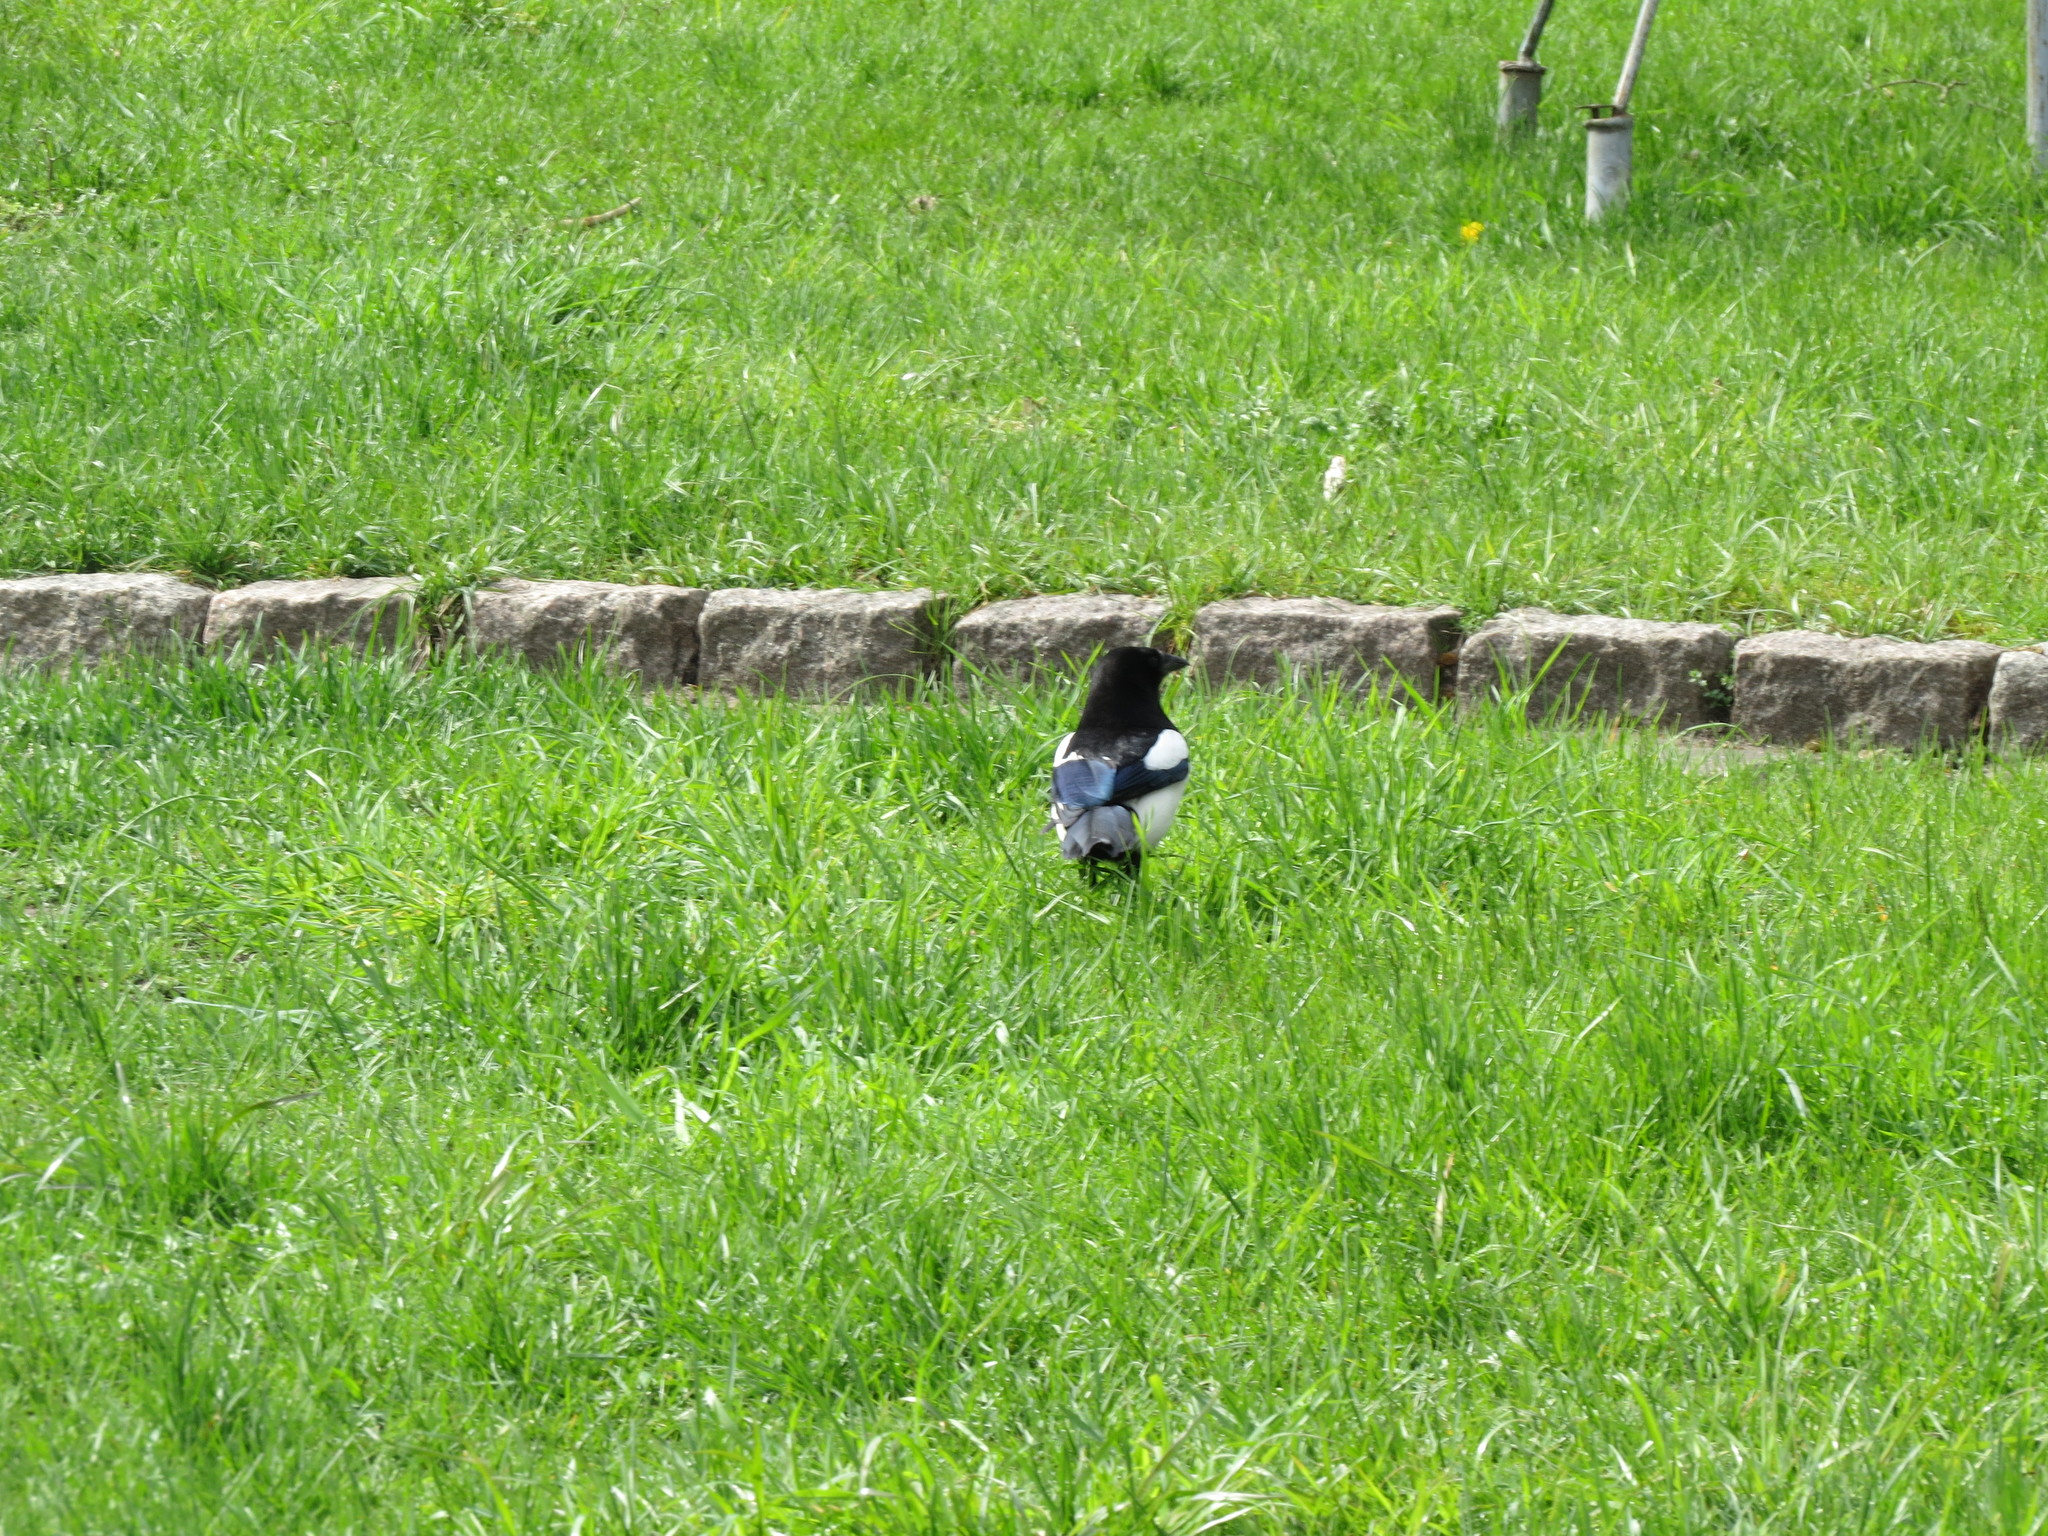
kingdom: Animalia
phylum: Chordata
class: Aves
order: Passeriformes
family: Corvidae
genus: Pica
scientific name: Pica pica
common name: Eurasian magpie
